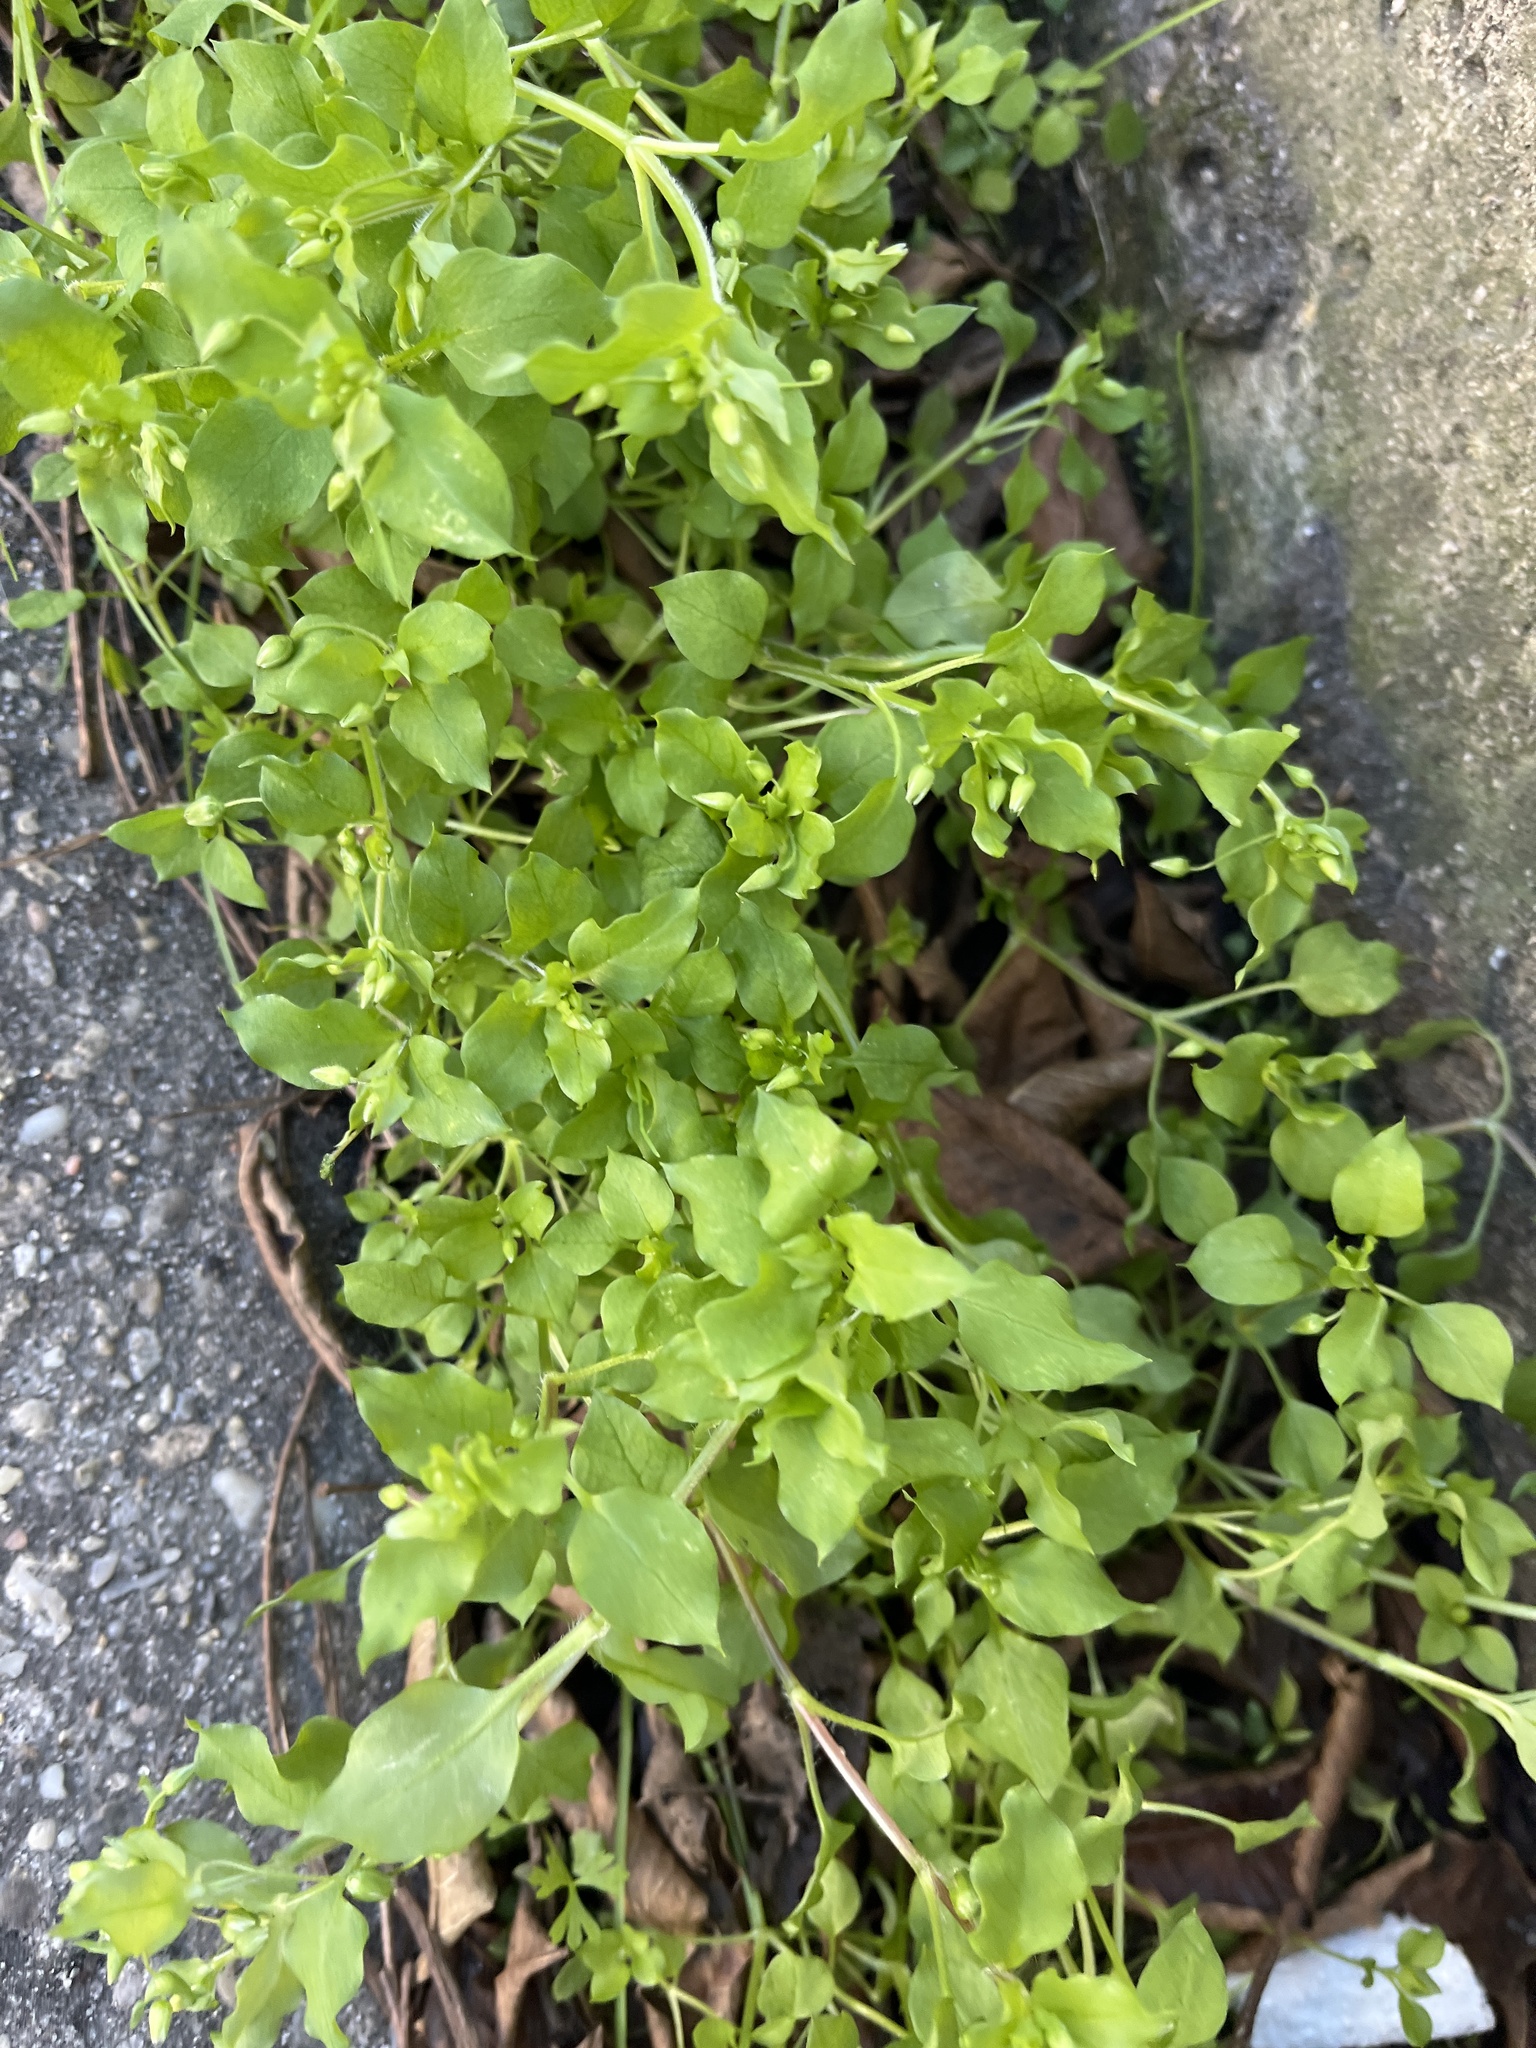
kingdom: Plantae
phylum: Tracheophyta
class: Magnoliopsida
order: Caryophyllales
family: Caryophyllaceae
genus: Stellaria
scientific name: Stellaria media
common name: Common chickweed
